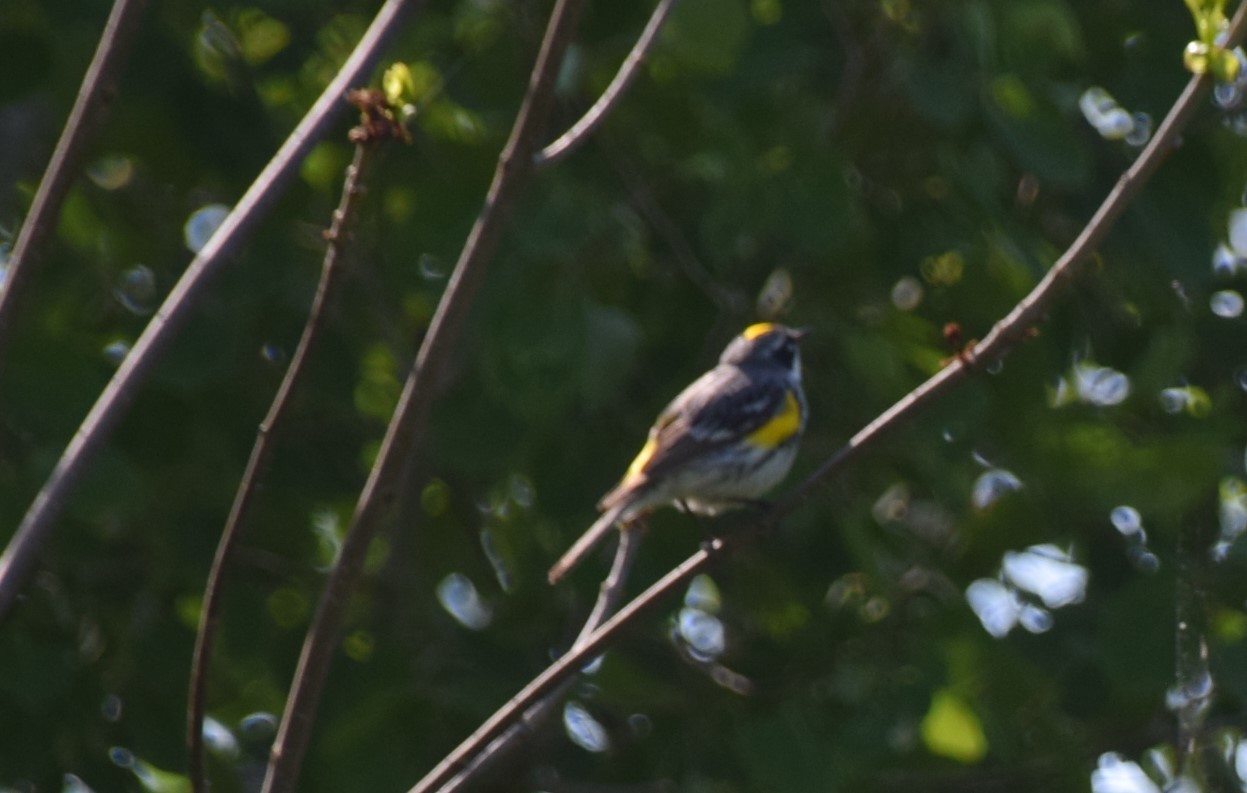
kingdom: Animalia
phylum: Chordata
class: Aves
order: Passeriformes
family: Parulidae
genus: Setophaga
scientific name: Setophaga coronata
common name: Myrtle warbler
